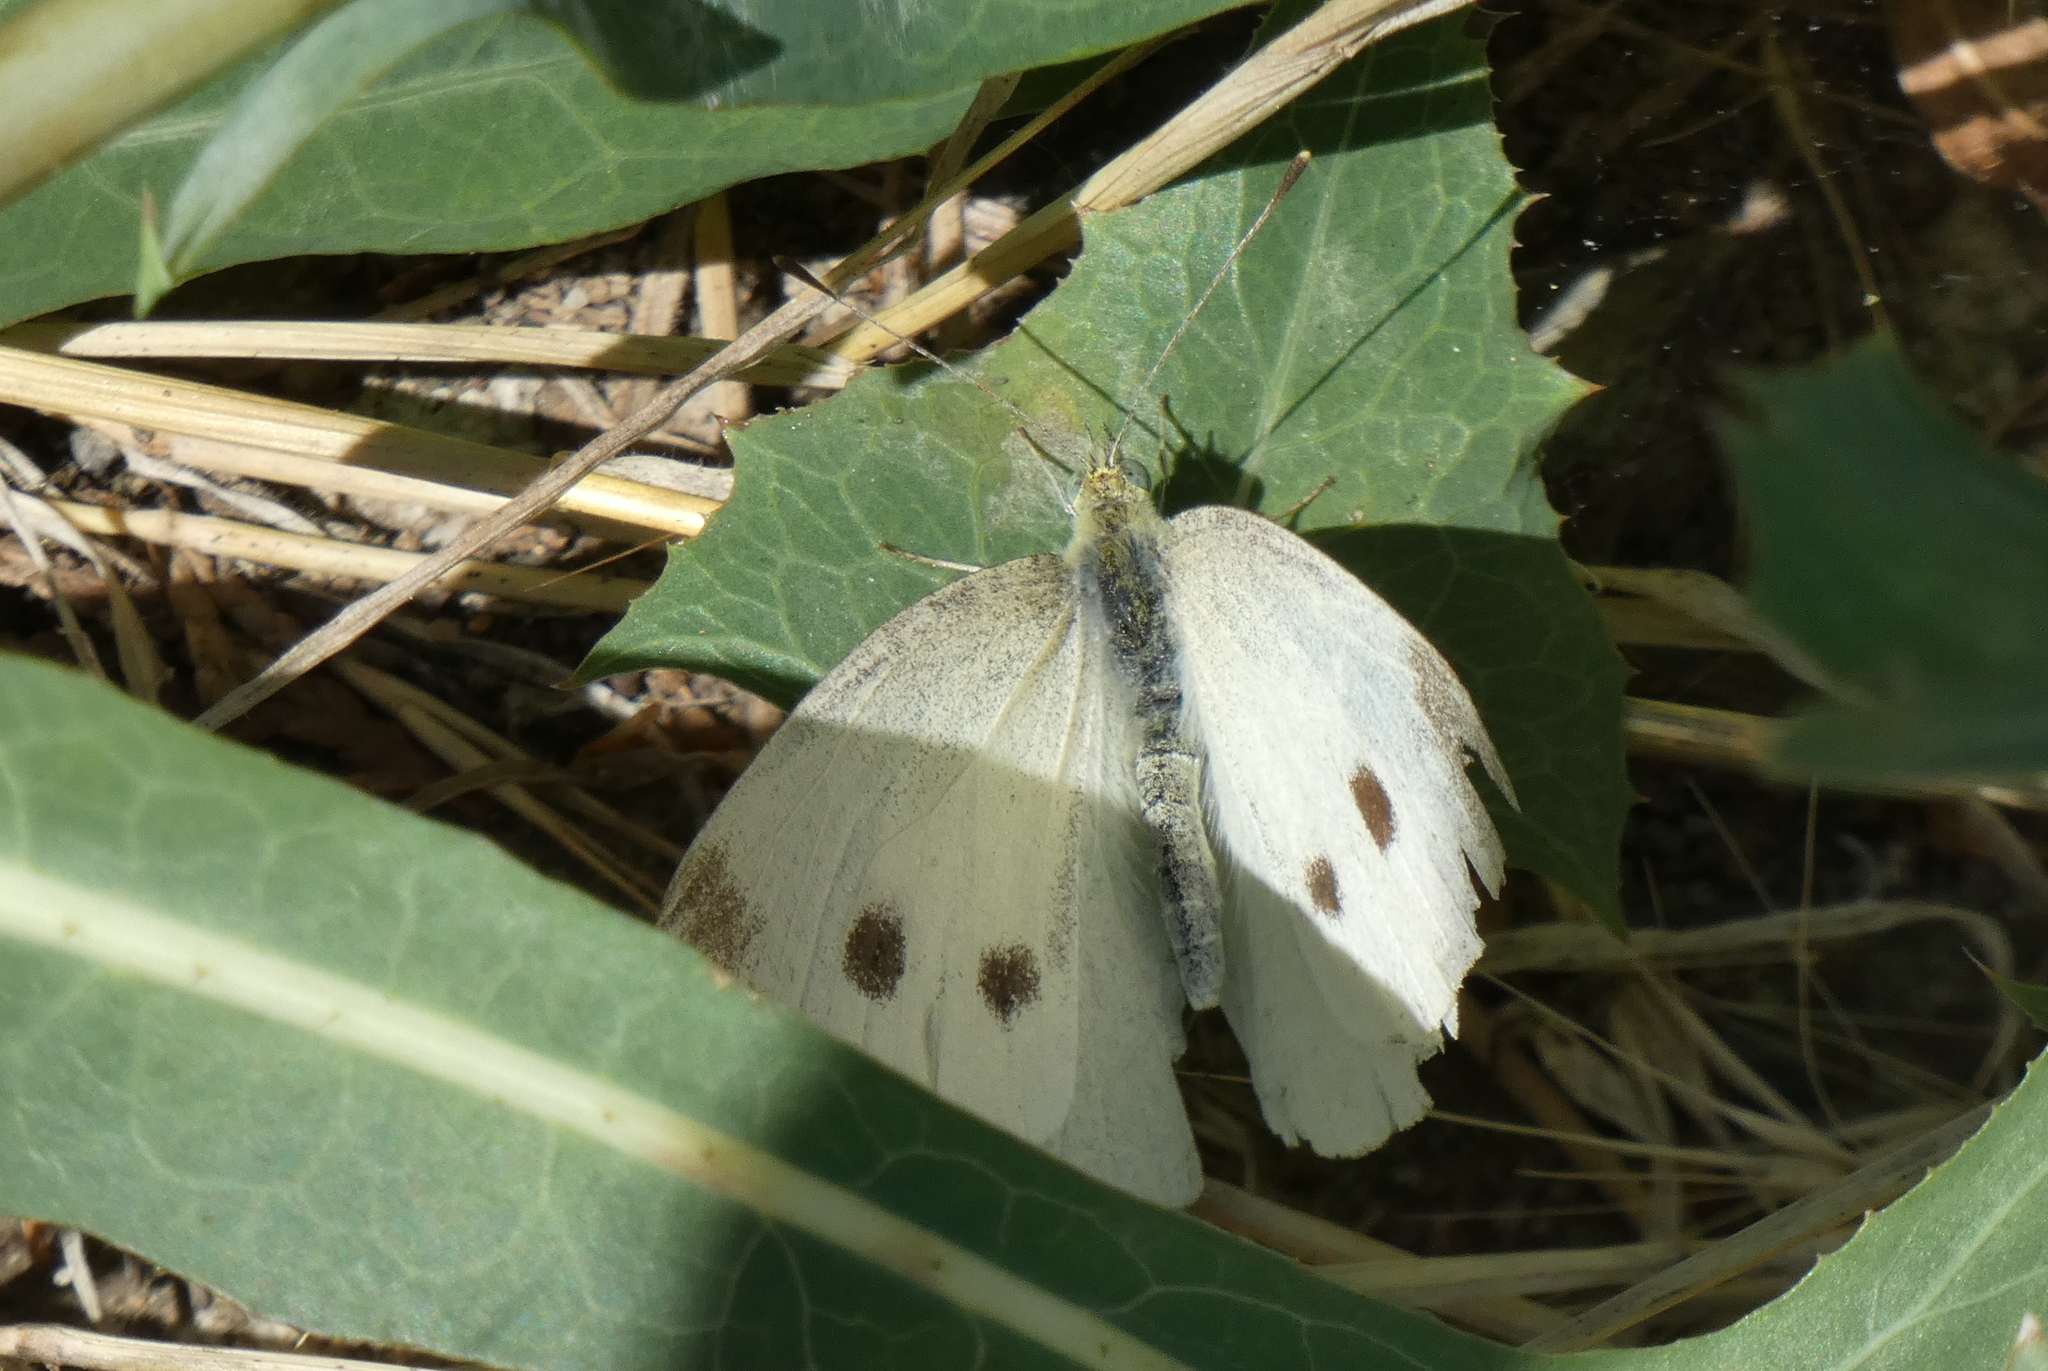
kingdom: Animalia
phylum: Arthropoda
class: Insecta
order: Lepidoptera
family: Pieridae
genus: Pieris
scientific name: Pieris rapae
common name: Small white
